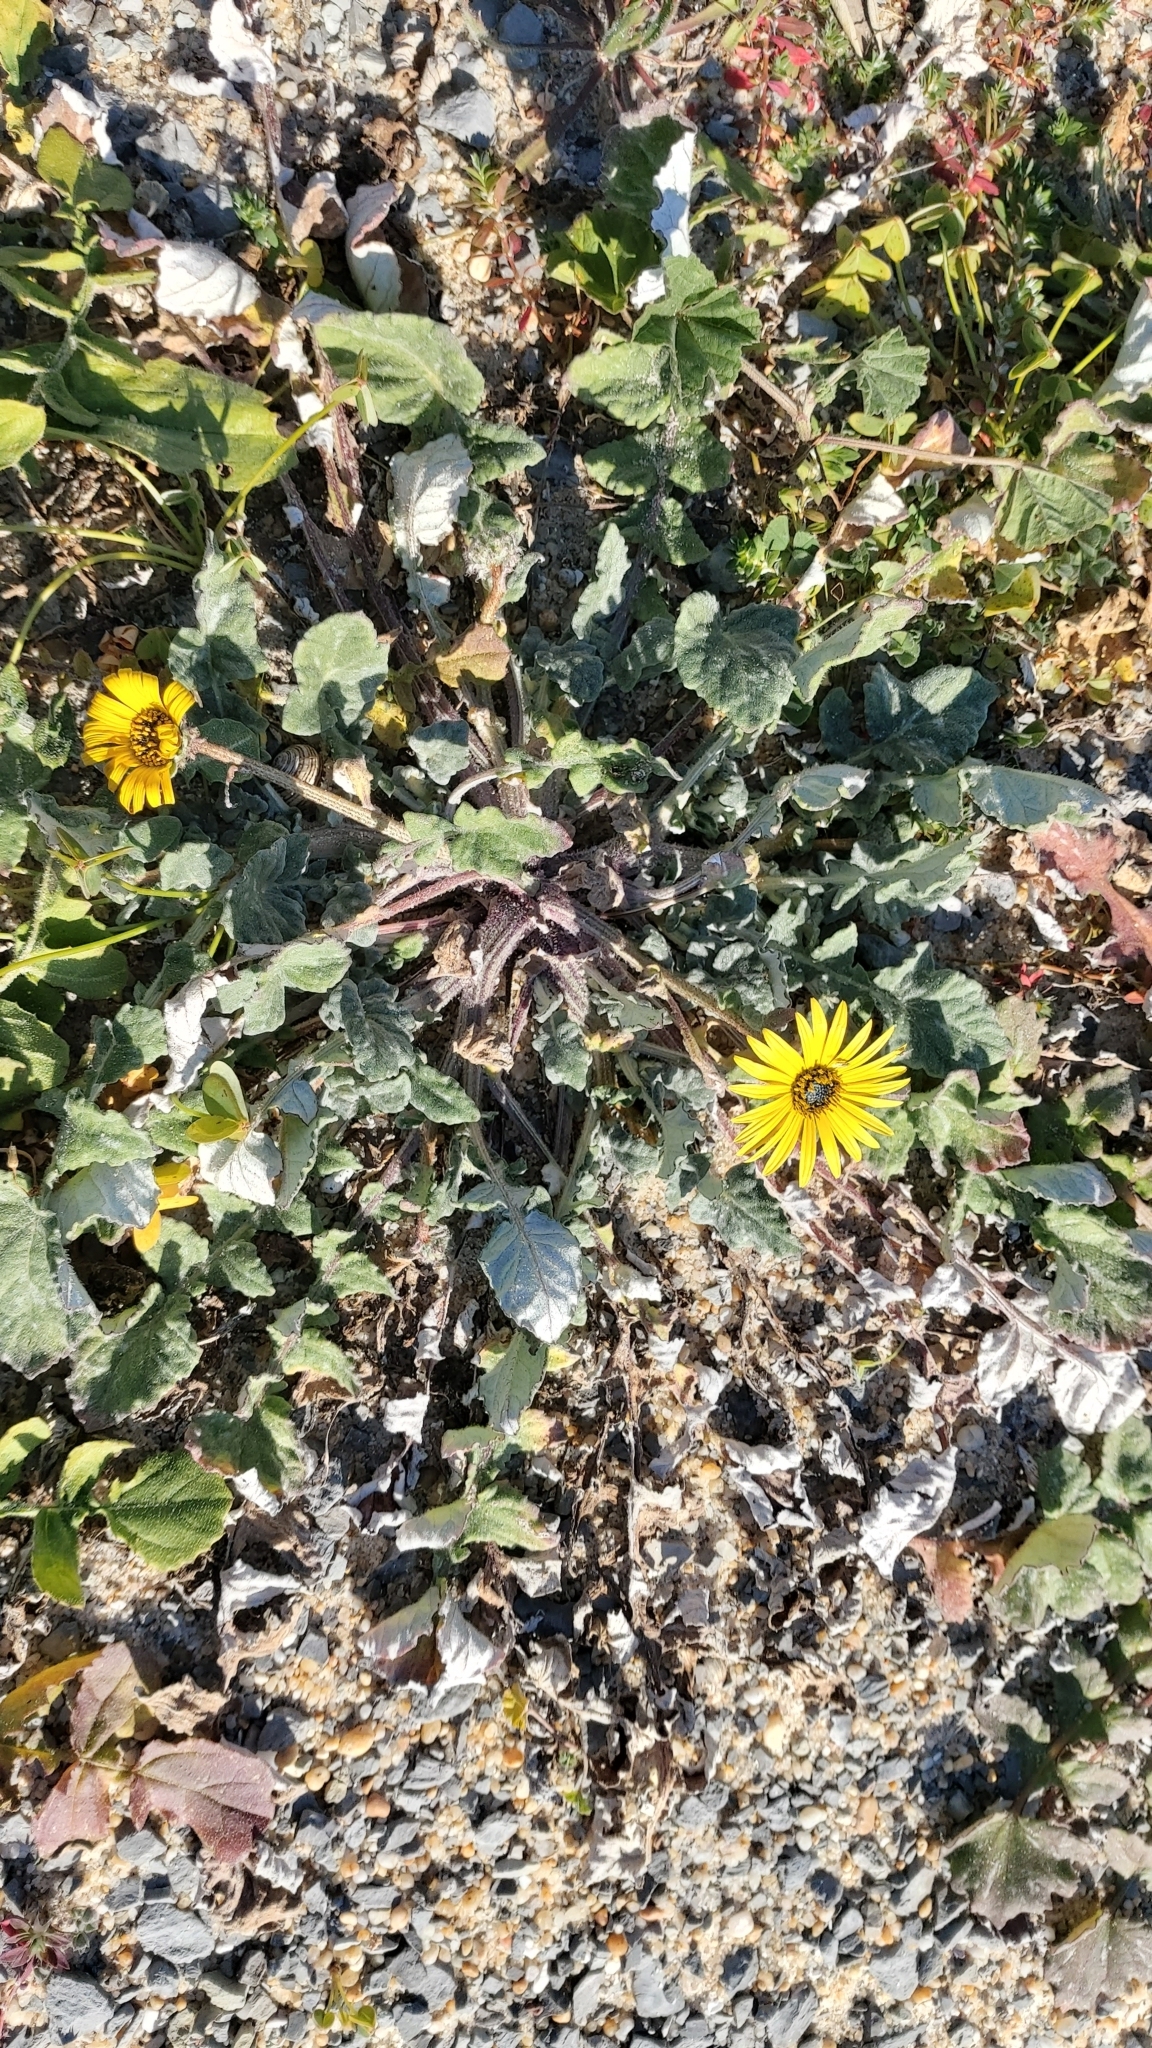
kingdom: Plantae
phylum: Tracheophyta
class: Magnoliopsida
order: Asterales
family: Asteraceae
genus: Arctotheca
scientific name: Arctotheca calendula
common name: Capeweed
